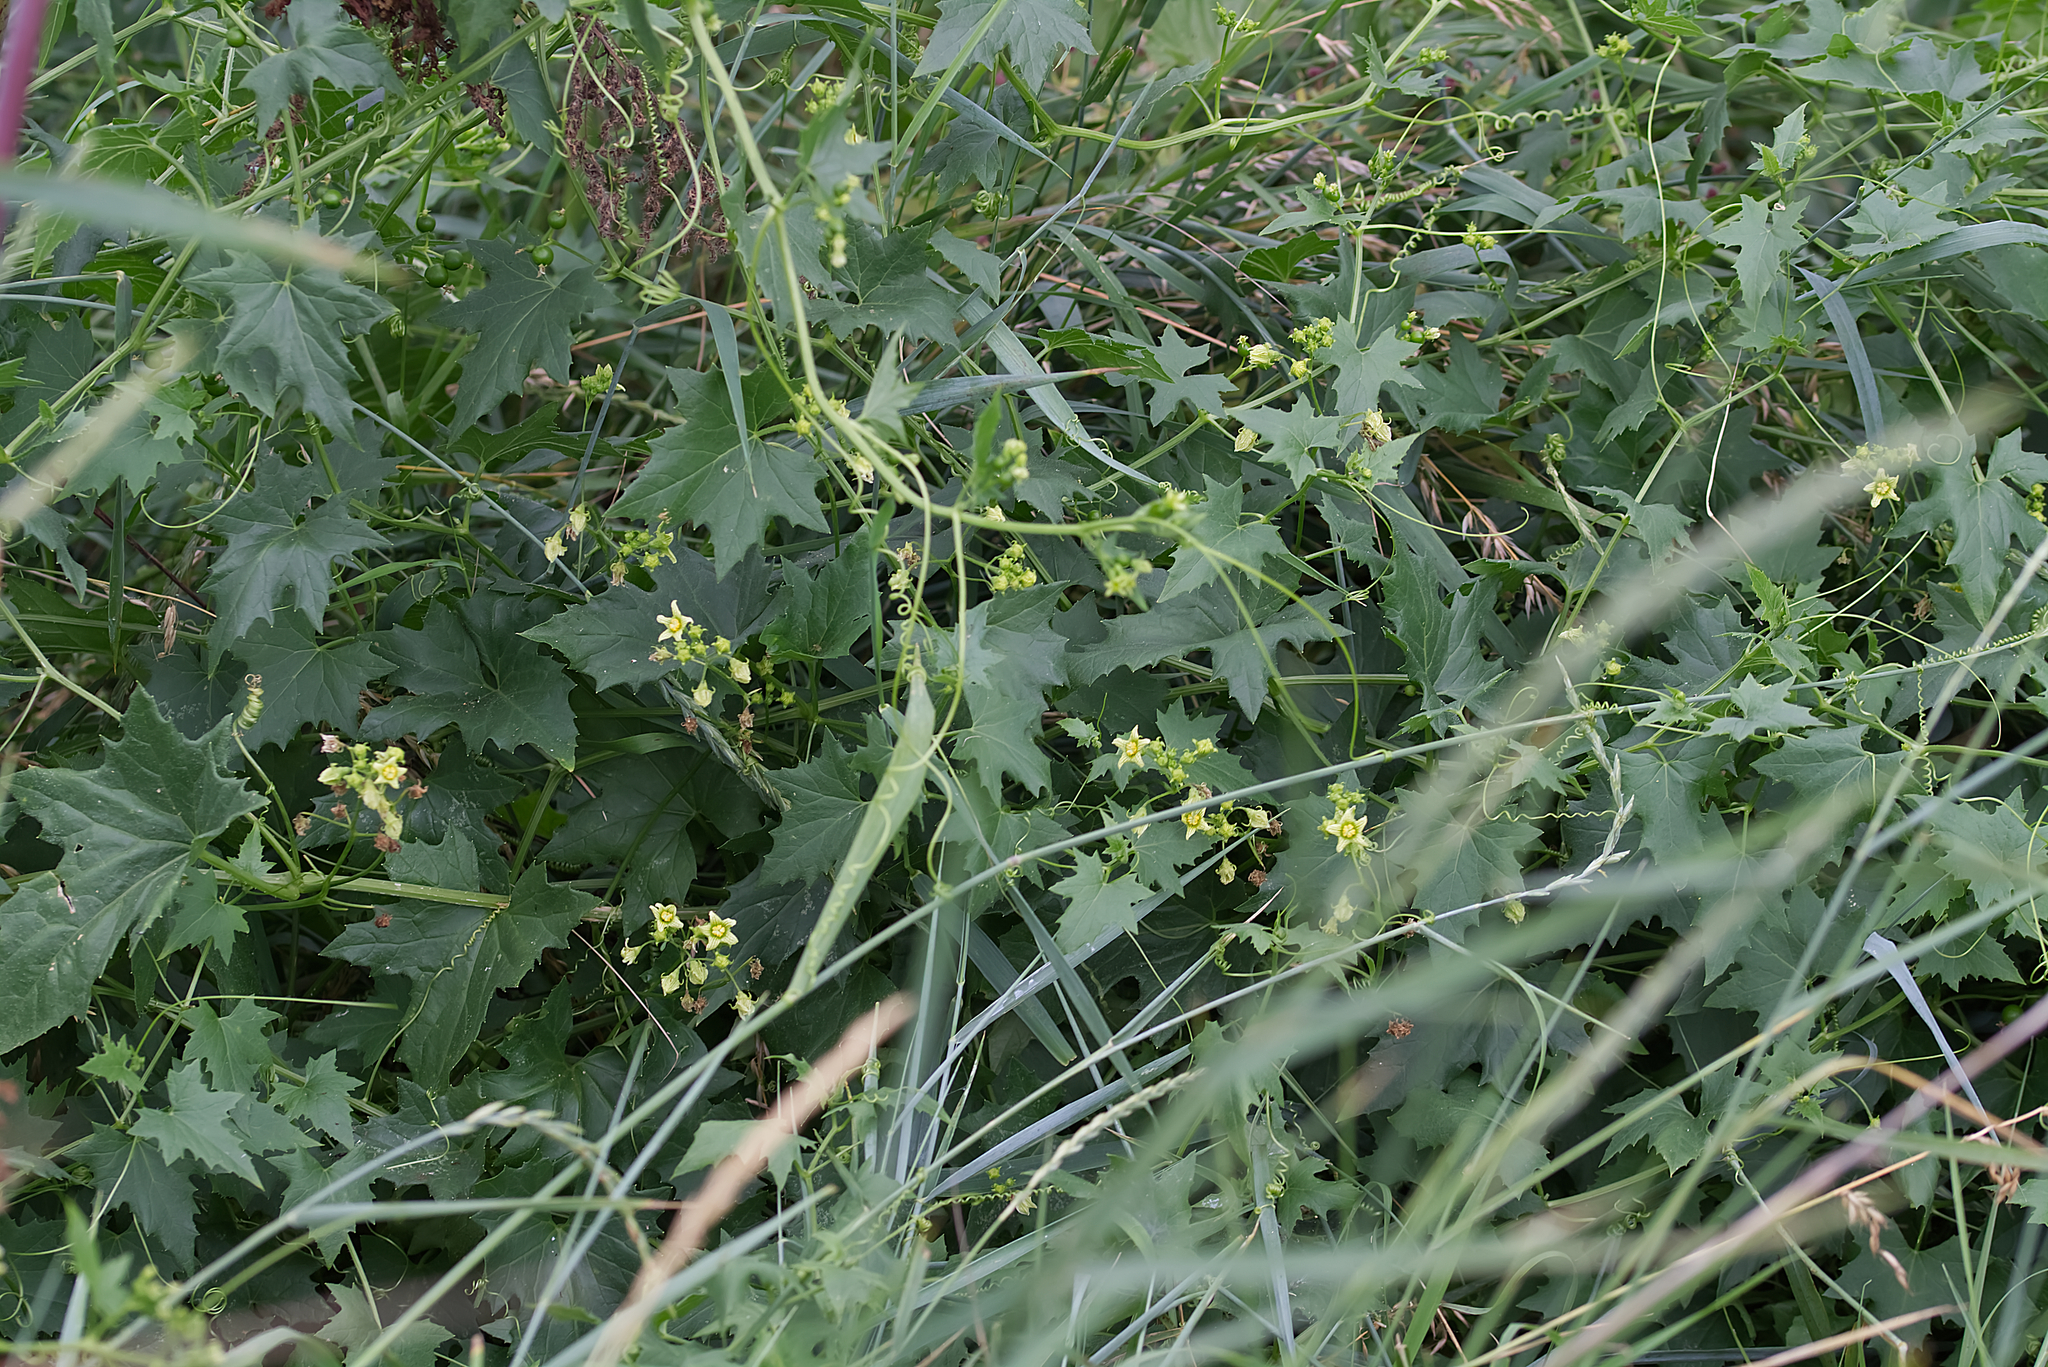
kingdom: Plantae
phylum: Tracheophyta
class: Magnoliopsida
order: Cucurbitales
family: Cucurbitaceae
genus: Bryonia
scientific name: Bryonia alba
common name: White bryony
